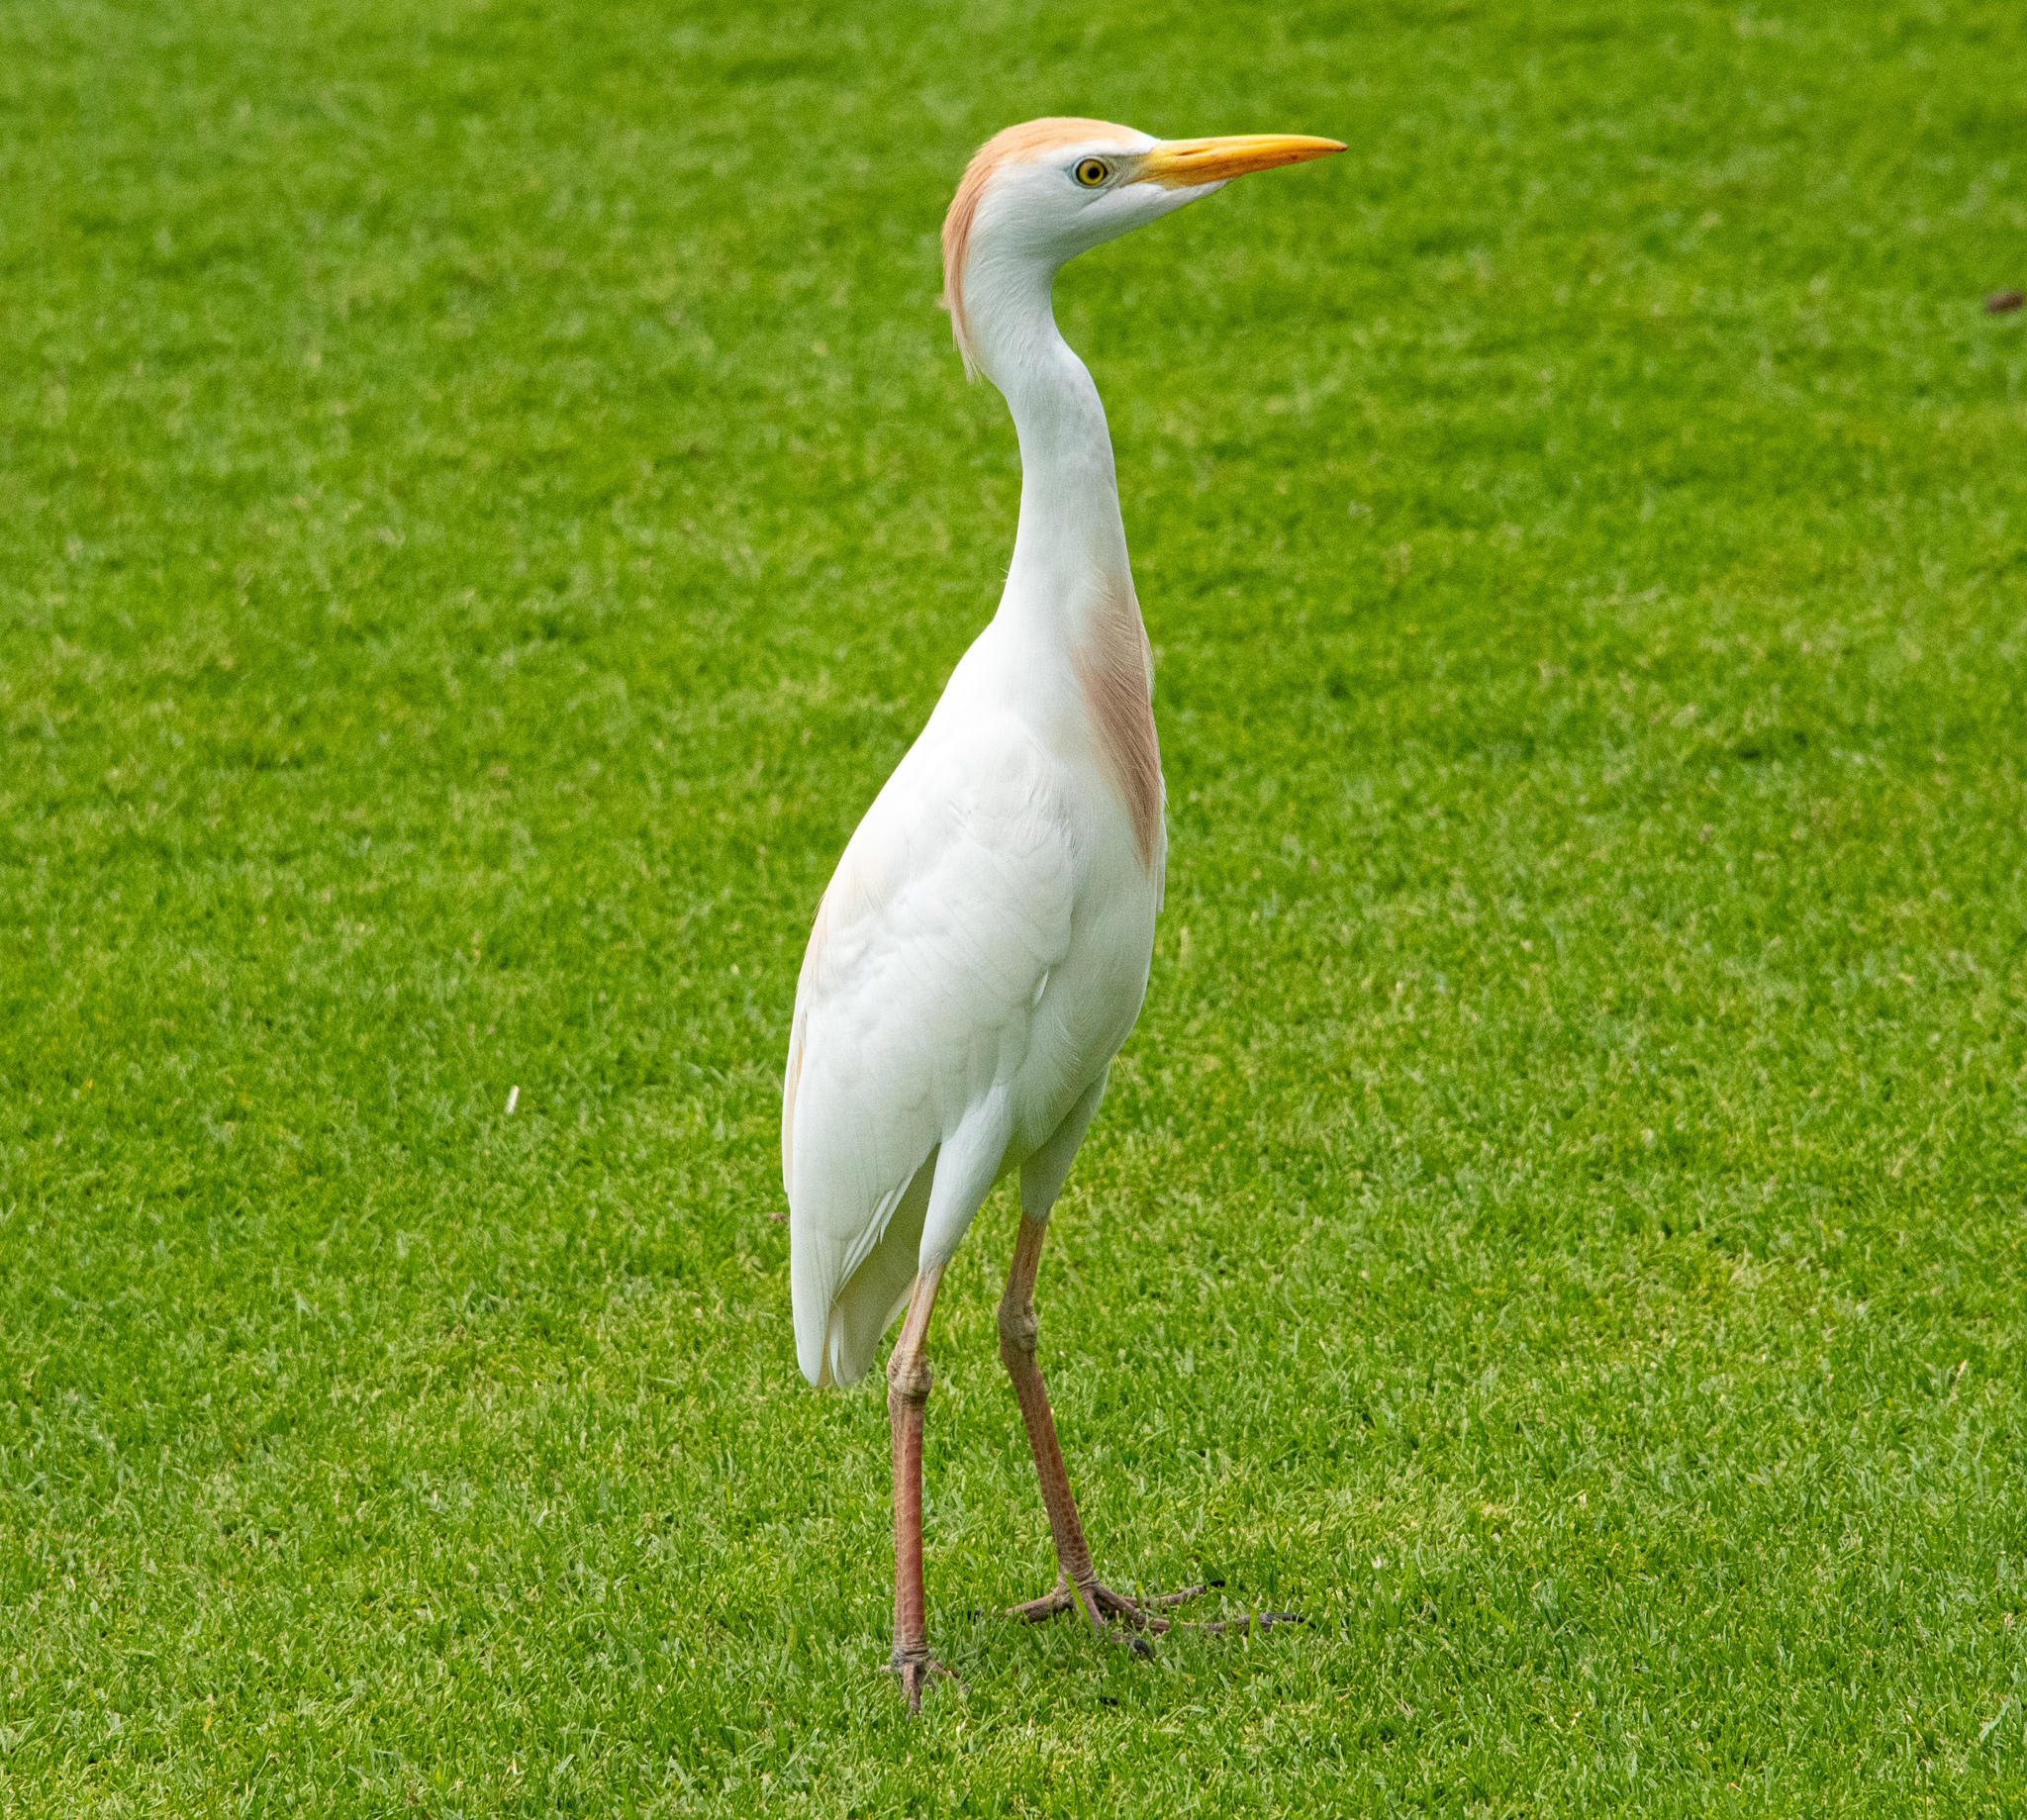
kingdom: Animalia
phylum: Chordata
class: Aves
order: Pelecaniformes
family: Ardeidae
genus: Bubulcus
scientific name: Bubulcus ibis
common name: Cattle egret
